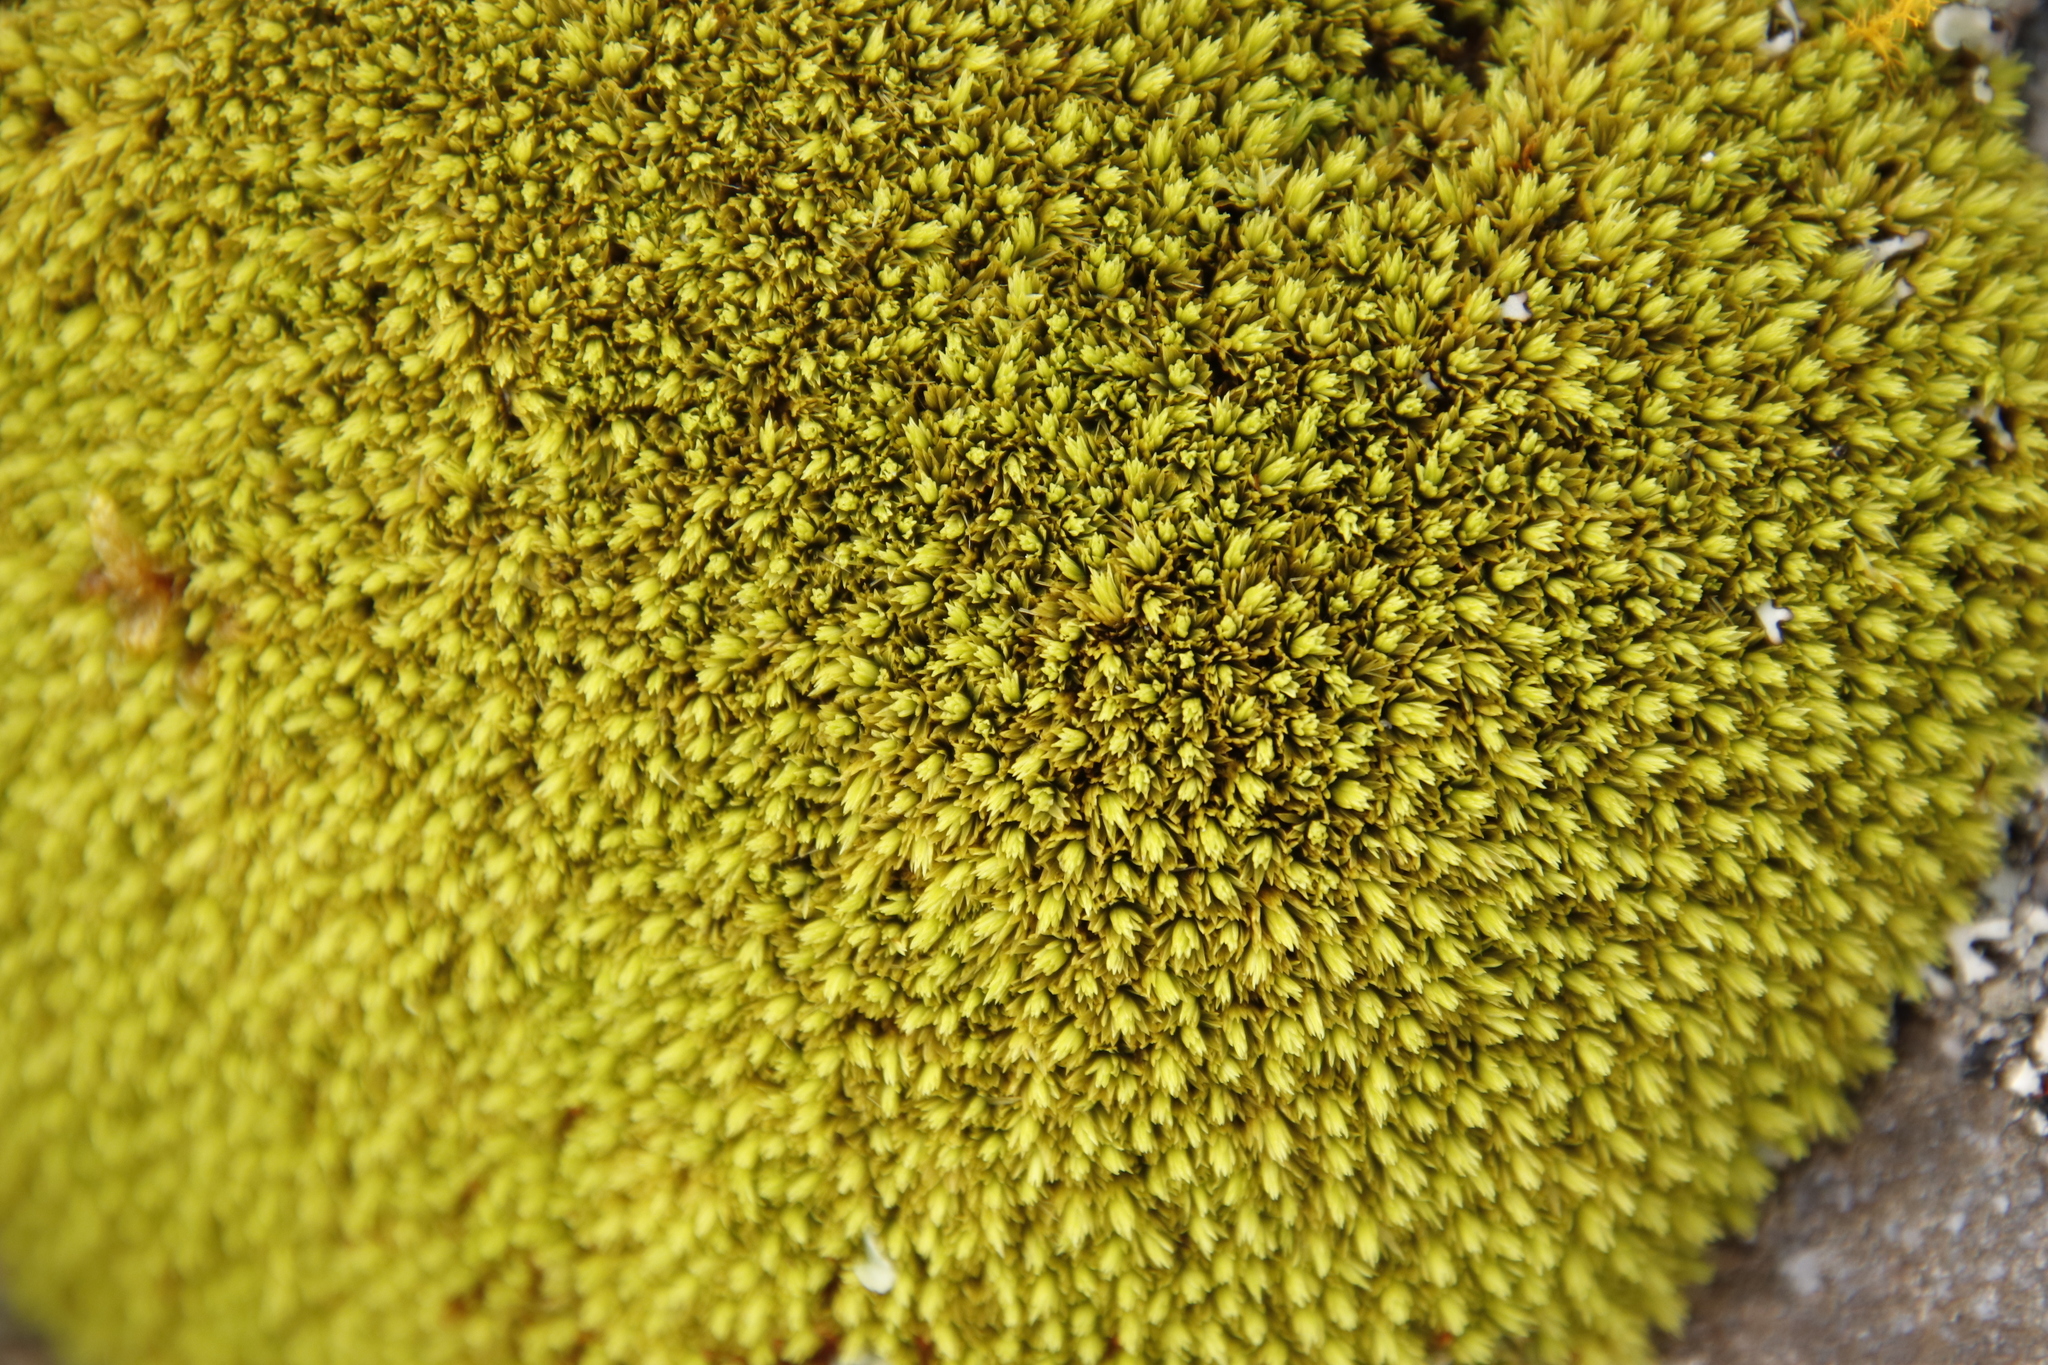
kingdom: Plantae
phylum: Bryophyta
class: Bryopsida
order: Dicranales
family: Hypodontiaceae
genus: Hypodontium
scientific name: Hypodontium pomiforme
